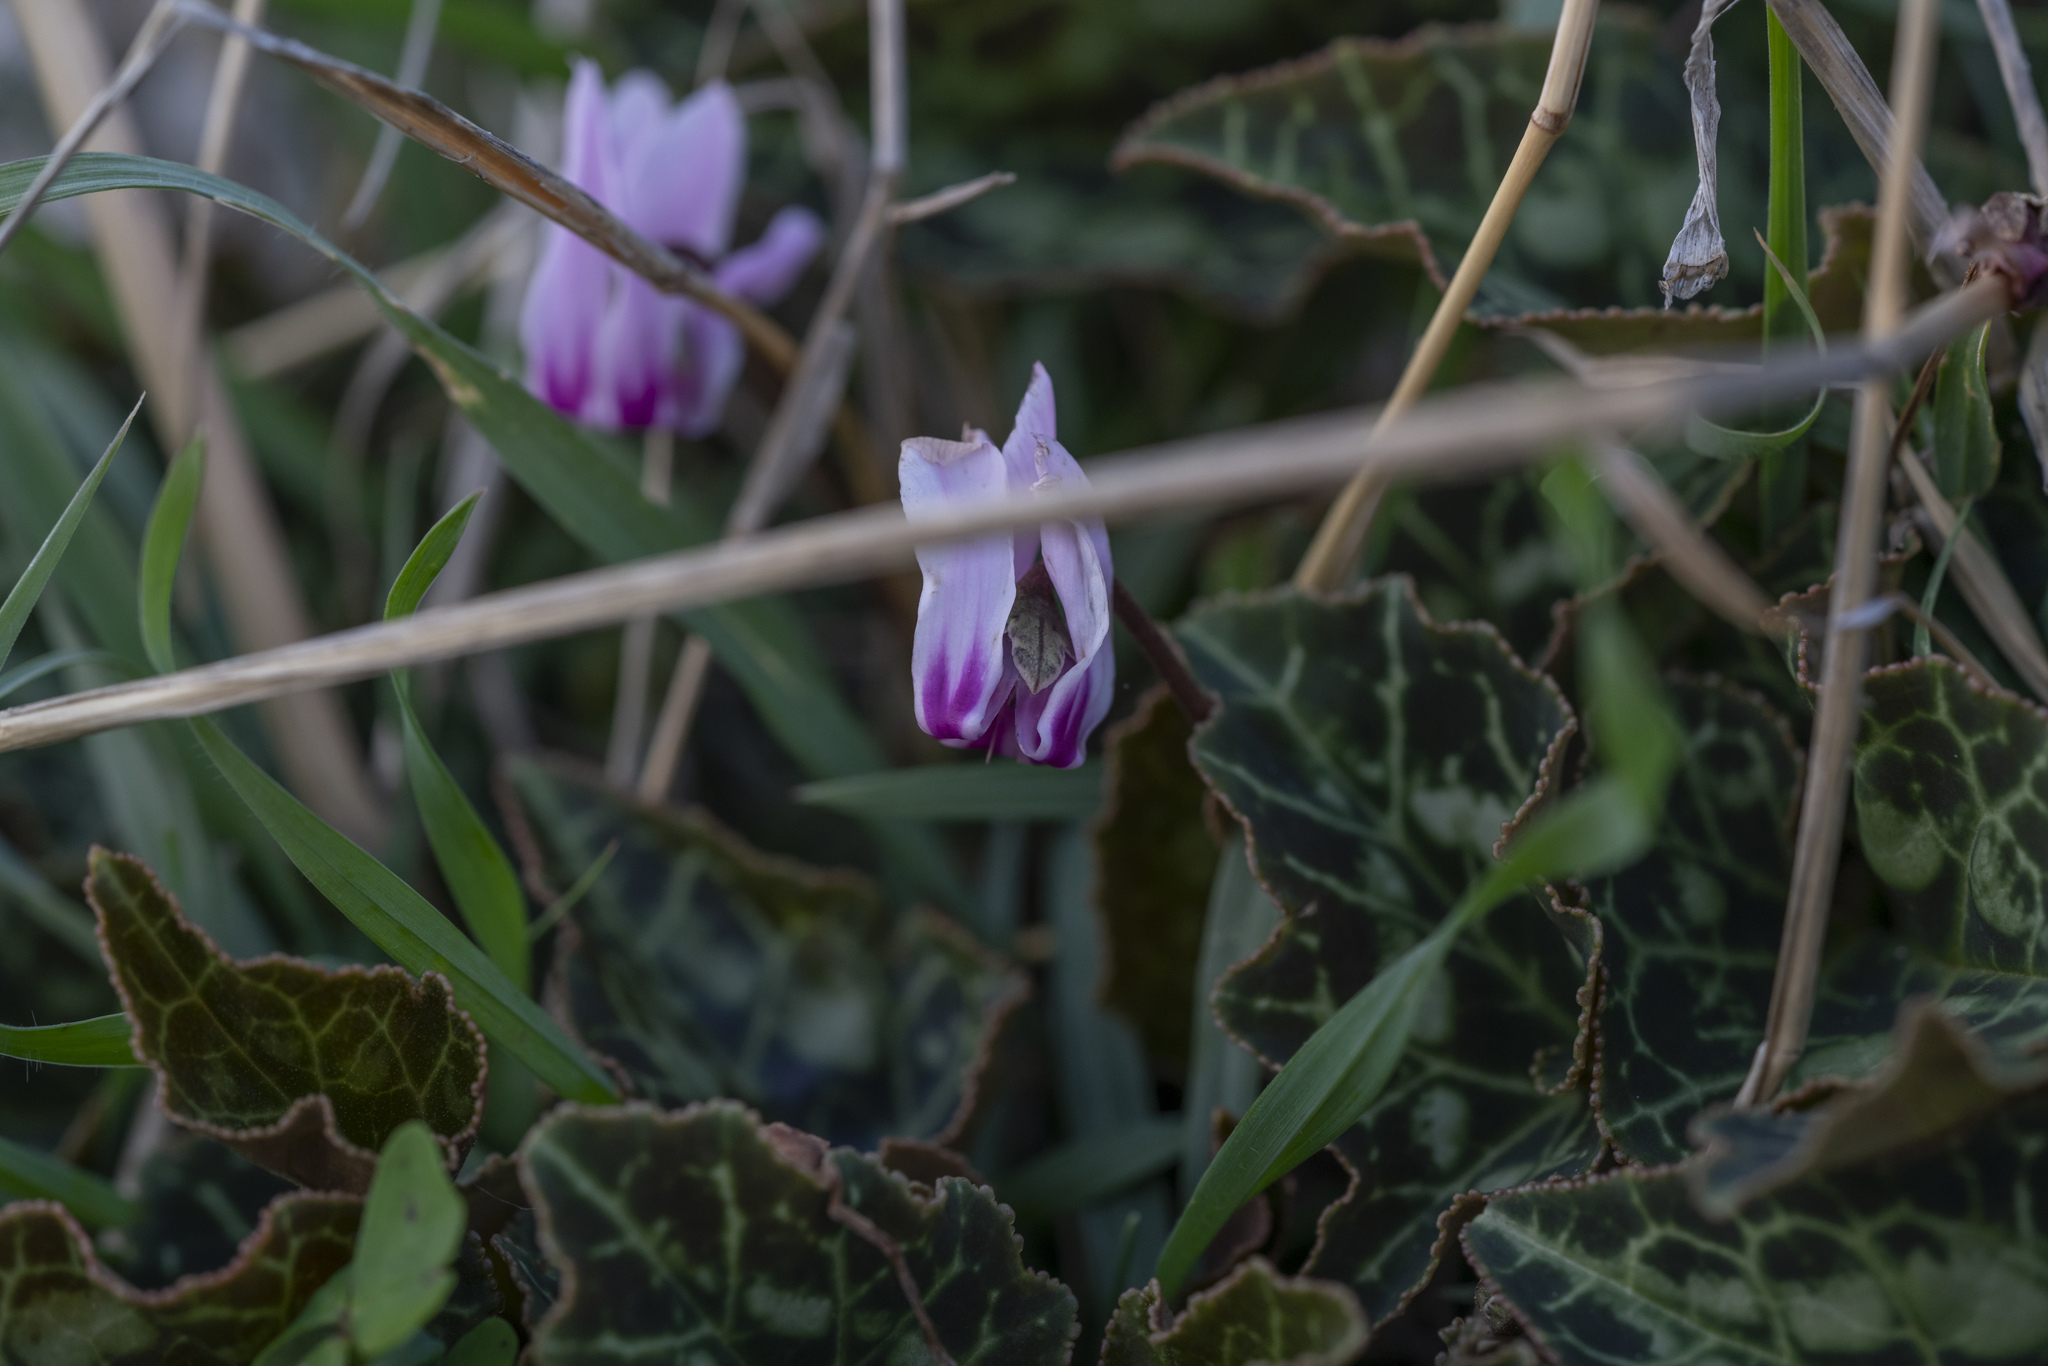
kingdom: Plantae
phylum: Tracheophyta
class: Magnoliopsida
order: Ericales
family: Primulaceae
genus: Cyclamen
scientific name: Cyclamen graecum
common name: Greek cyclamen
